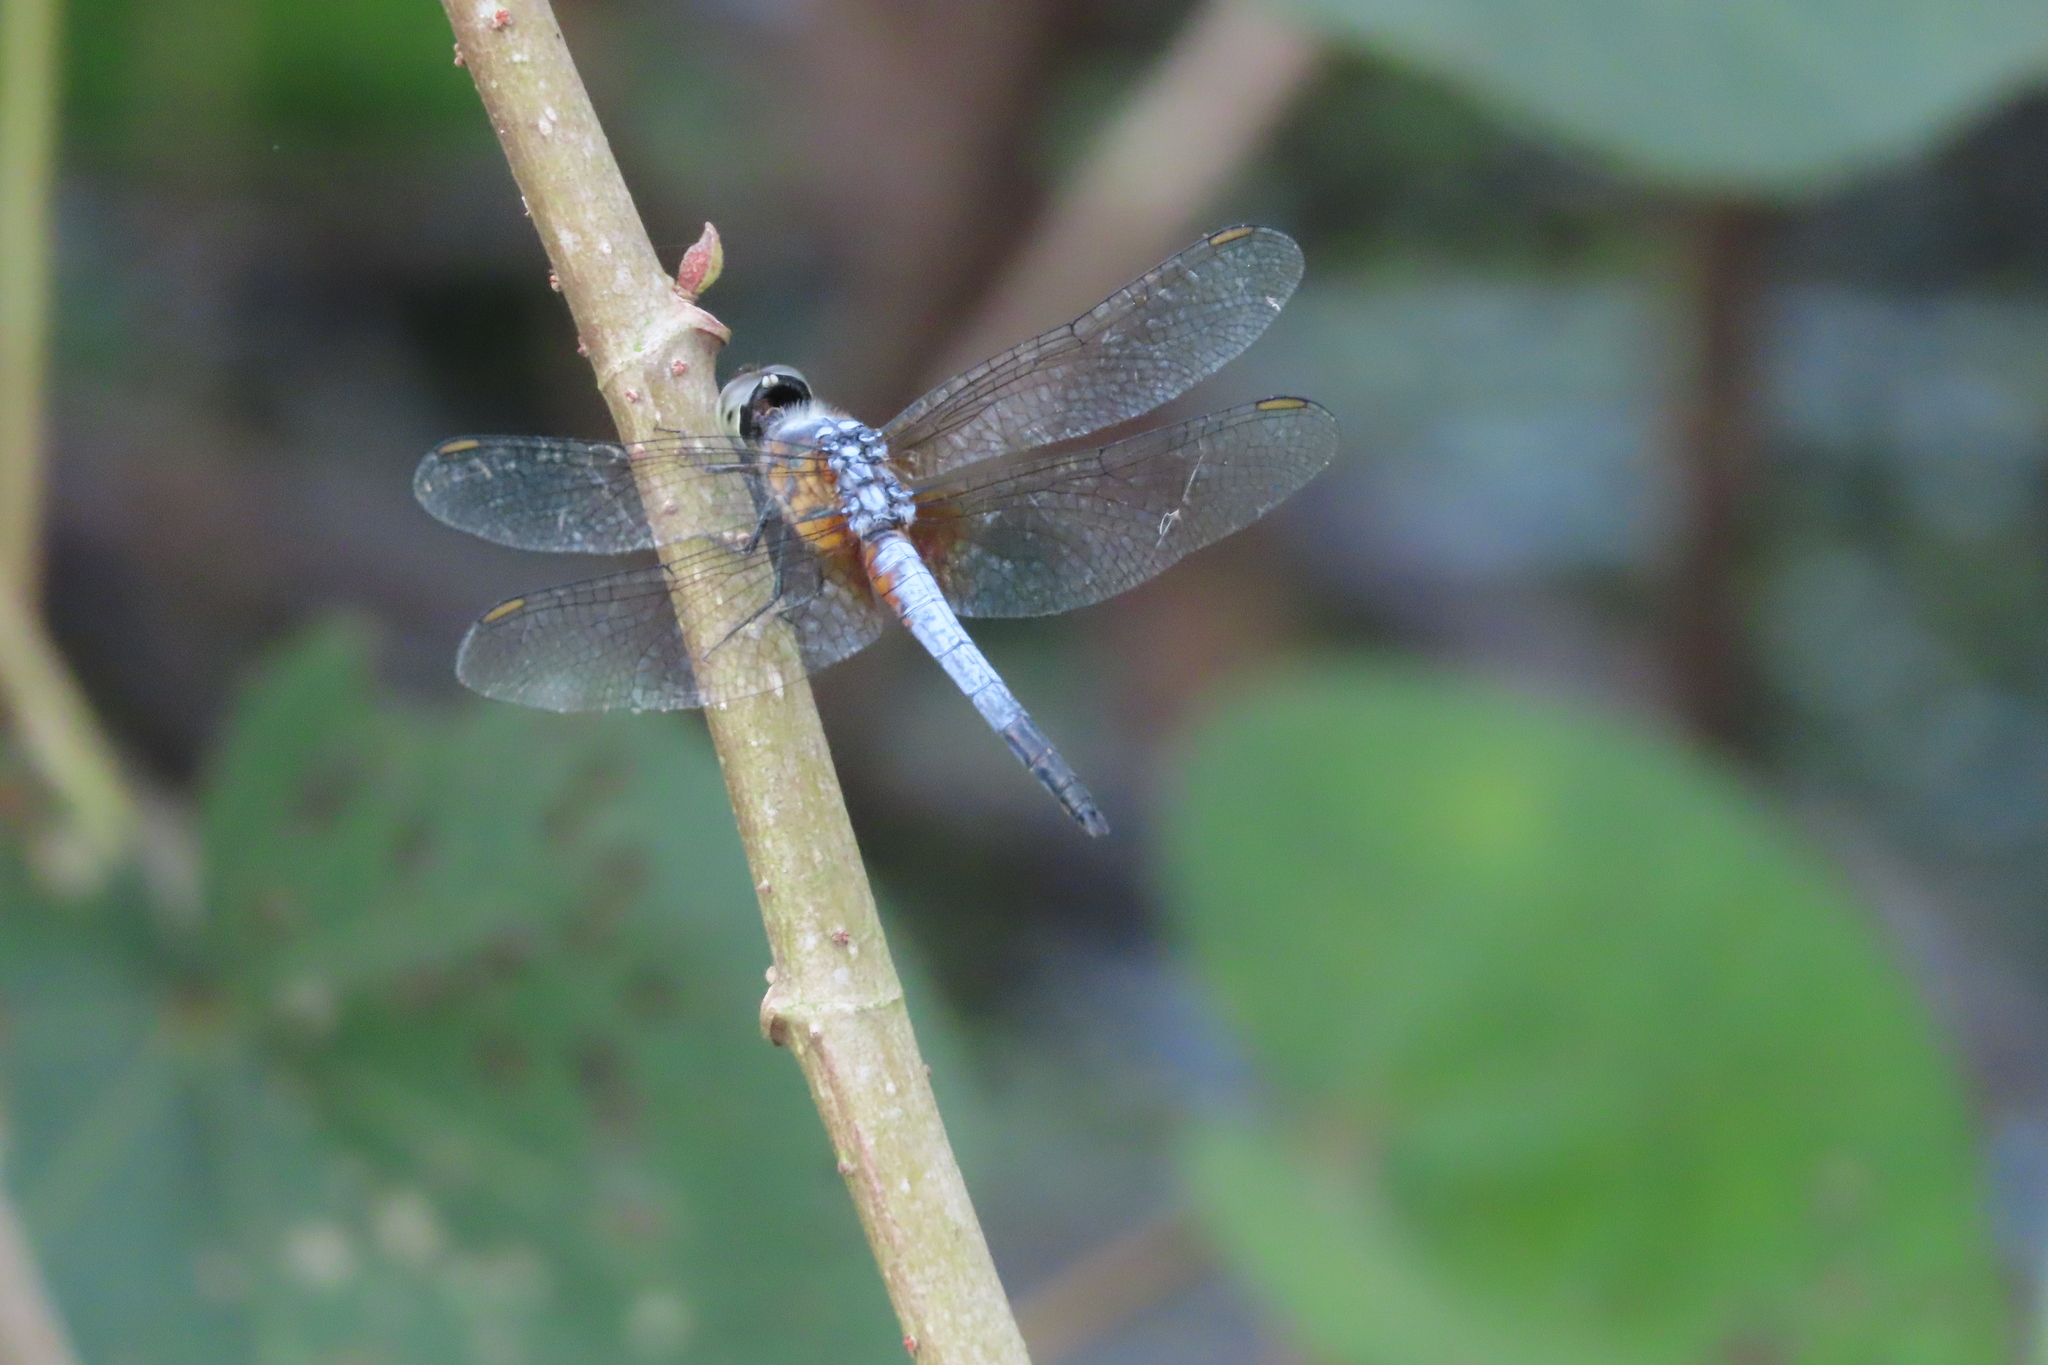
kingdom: Animalia
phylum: Arthropoda
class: Insecta
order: Odonata
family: Libellulidae
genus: Brachydiplax
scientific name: Brachydiplax chalybea
